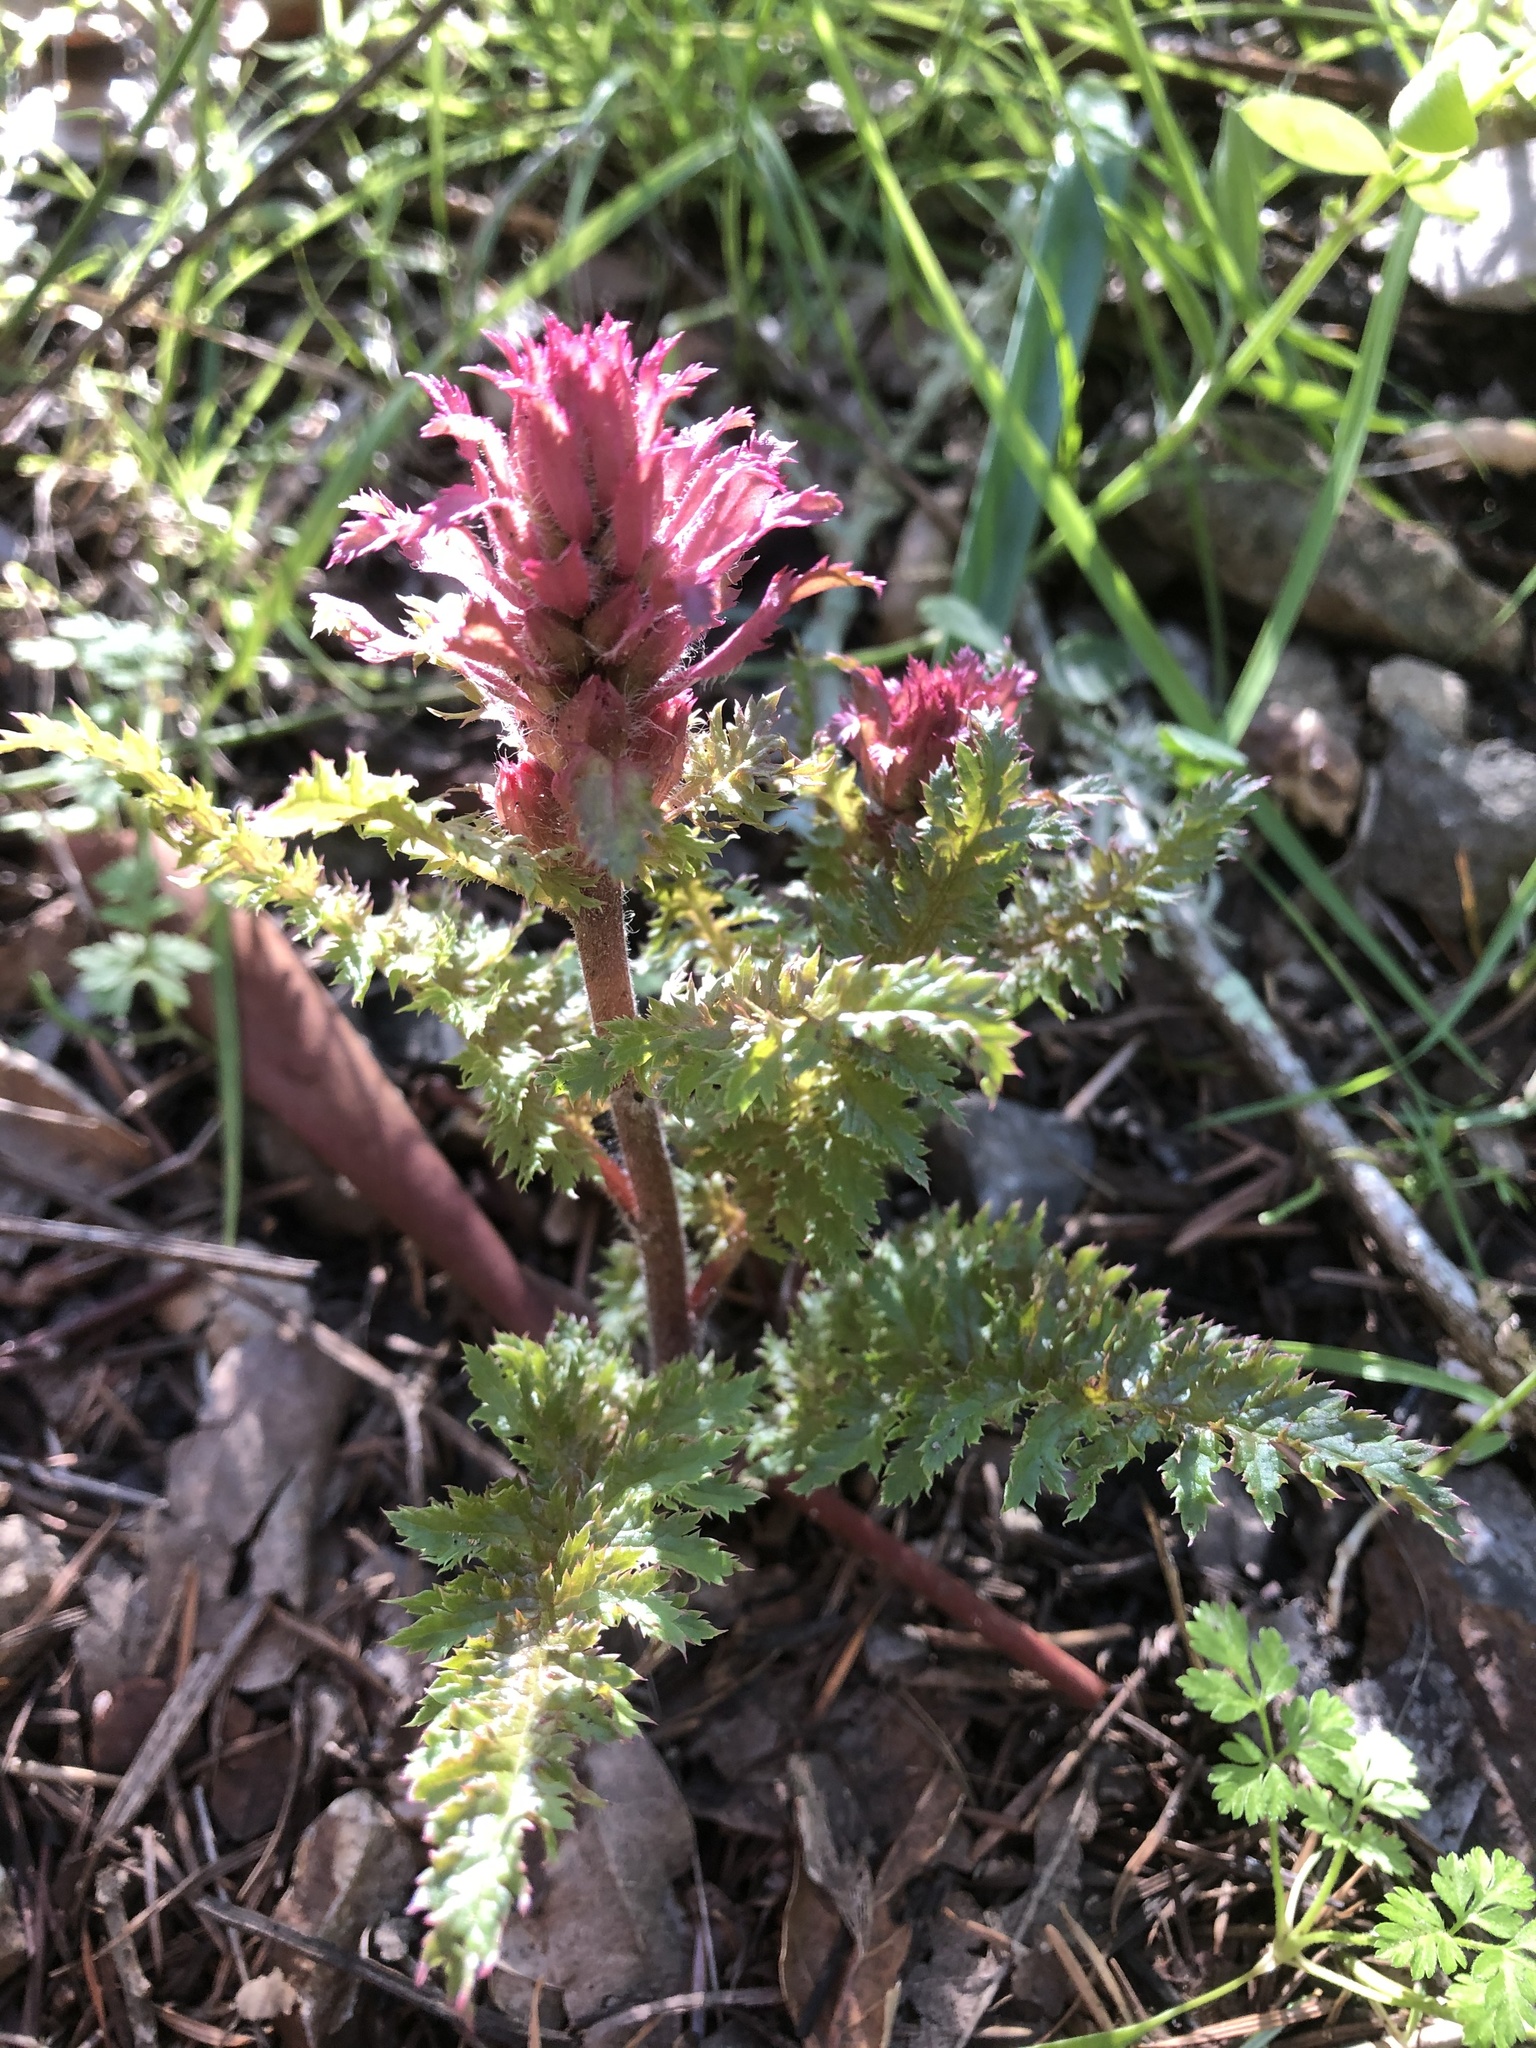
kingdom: Plantae
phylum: Tracheophyta
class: Magnoliopsida
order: Lamiales
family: Orobanchaceae
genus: Pedicularis
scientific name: Pedicularis densiflora
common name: Indian warrior
